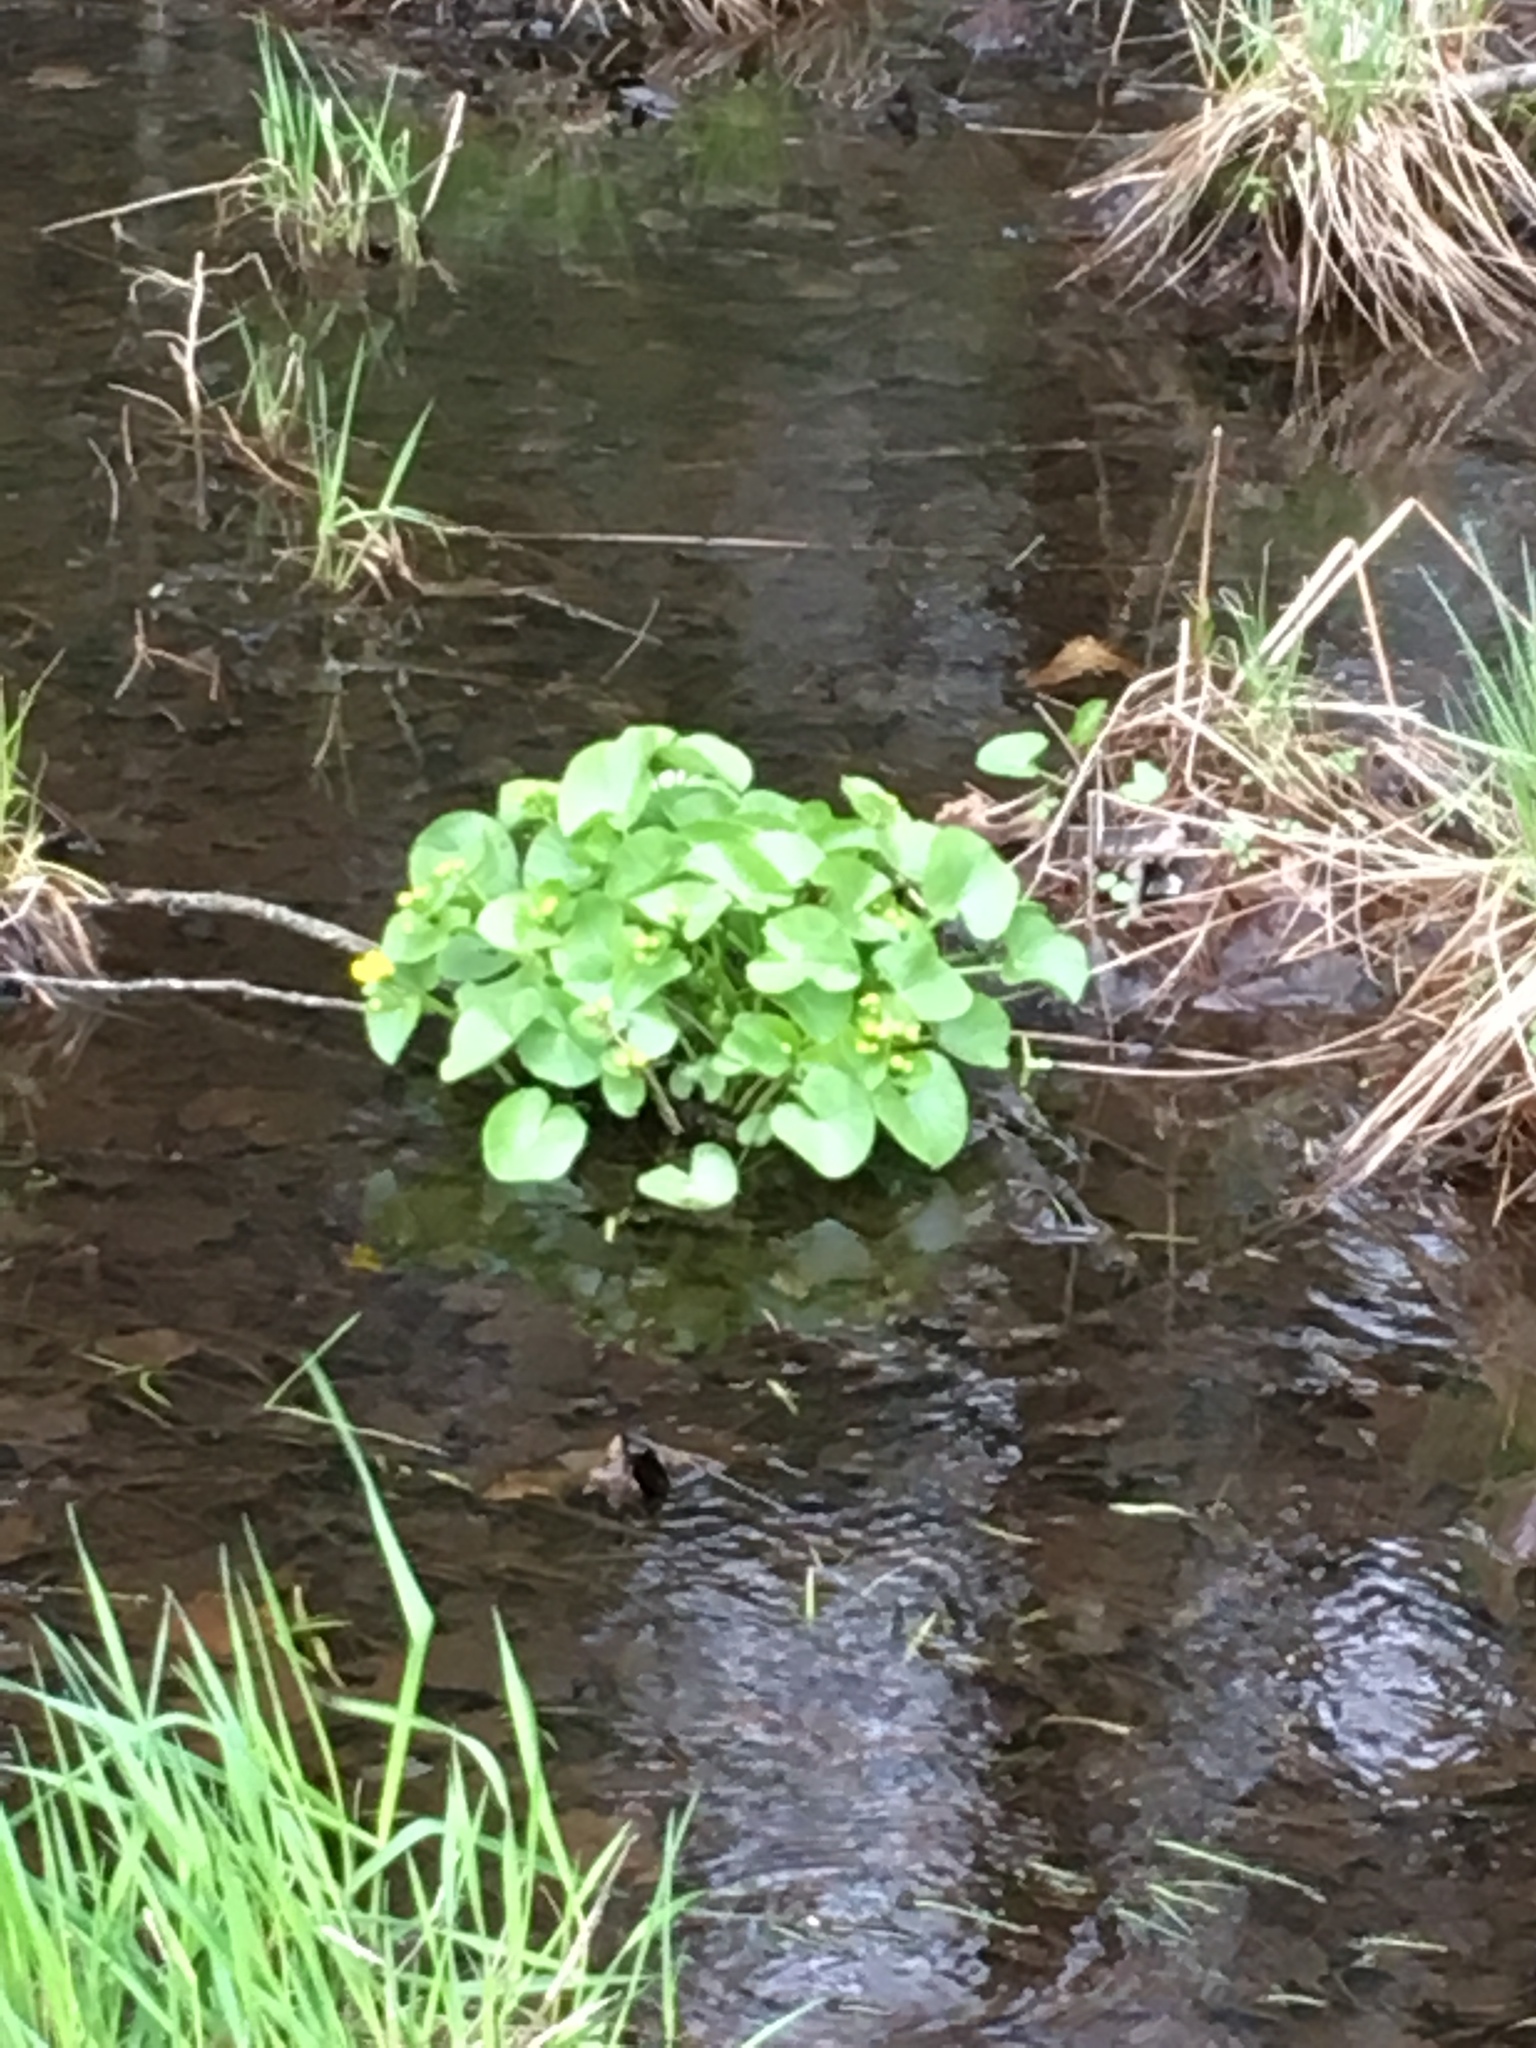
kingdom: Plantae
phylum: Tracheophyta
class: Magnoliopsida
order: Ranunculales
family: Ranunculaceae
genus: Caltha
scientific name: Caltha palustris
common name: Marsh marigold
